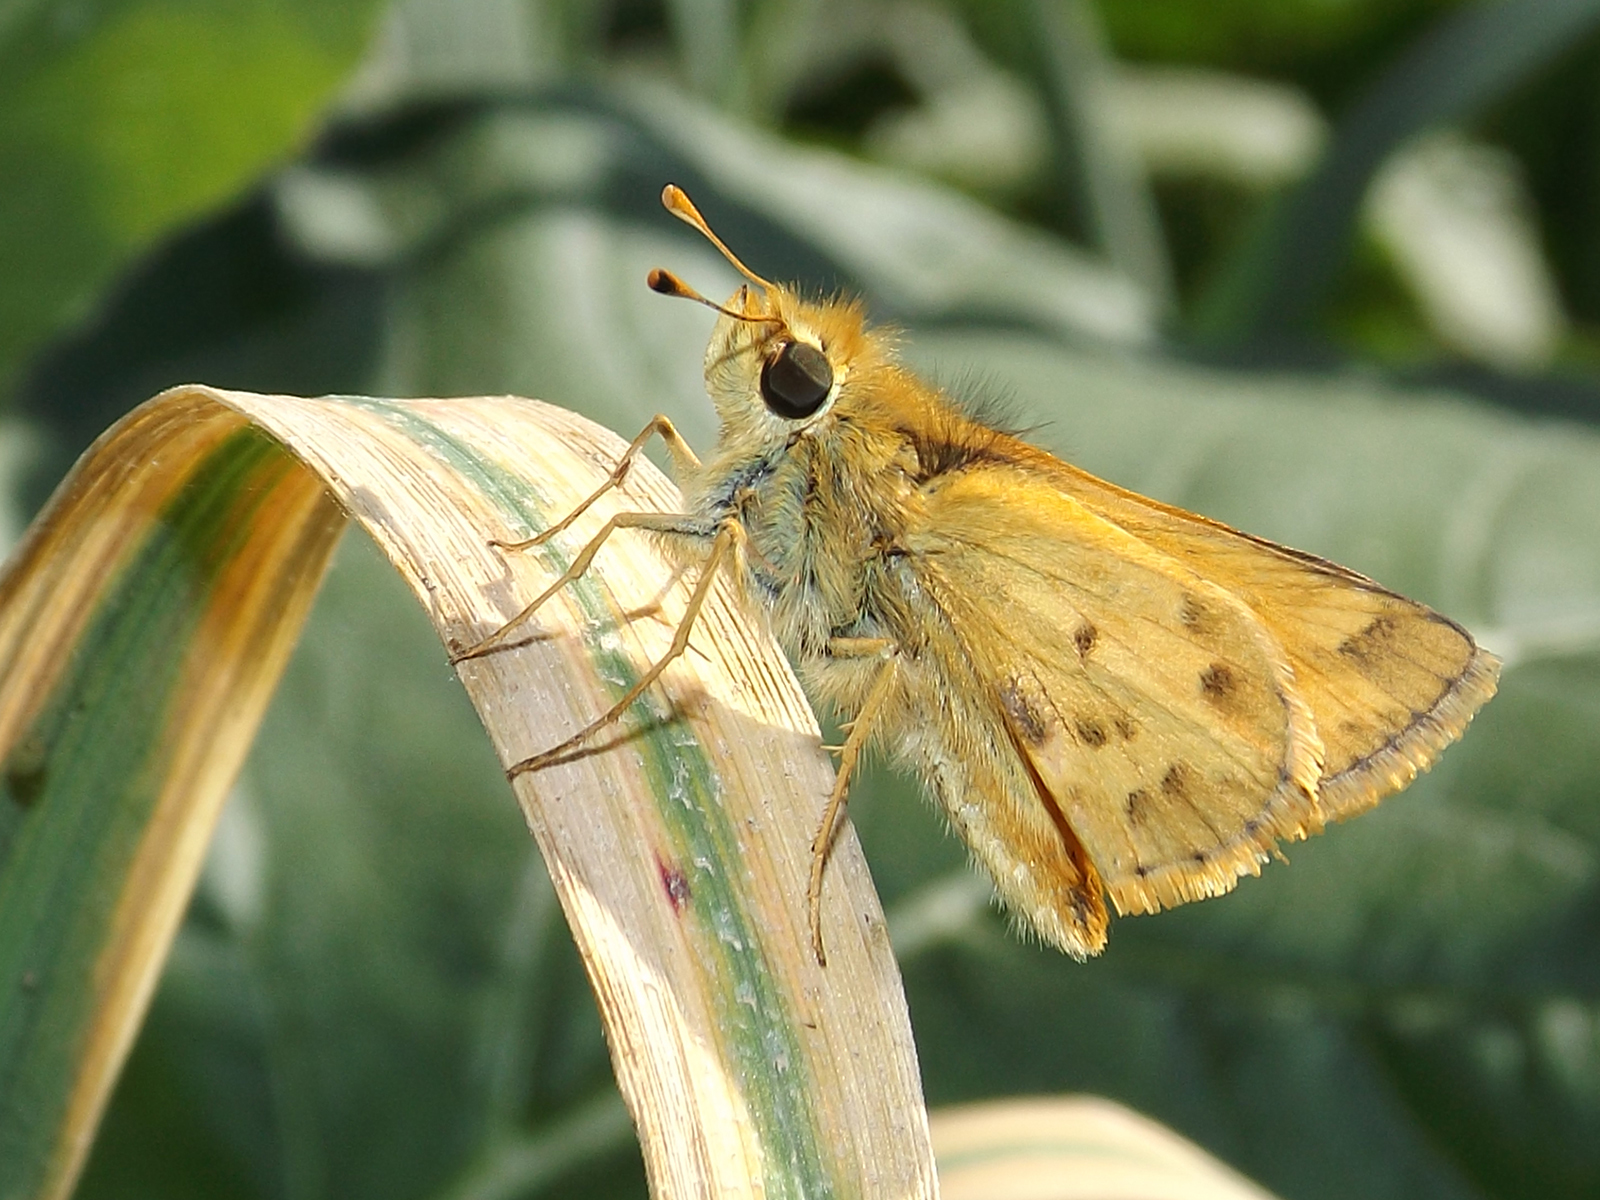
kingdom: Animalia
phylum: Arthropoda
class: Insecta
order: Lepidoptera
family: Hesperiidae
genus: Hylephila
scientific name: Hylephila signata
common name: Signata skipper
